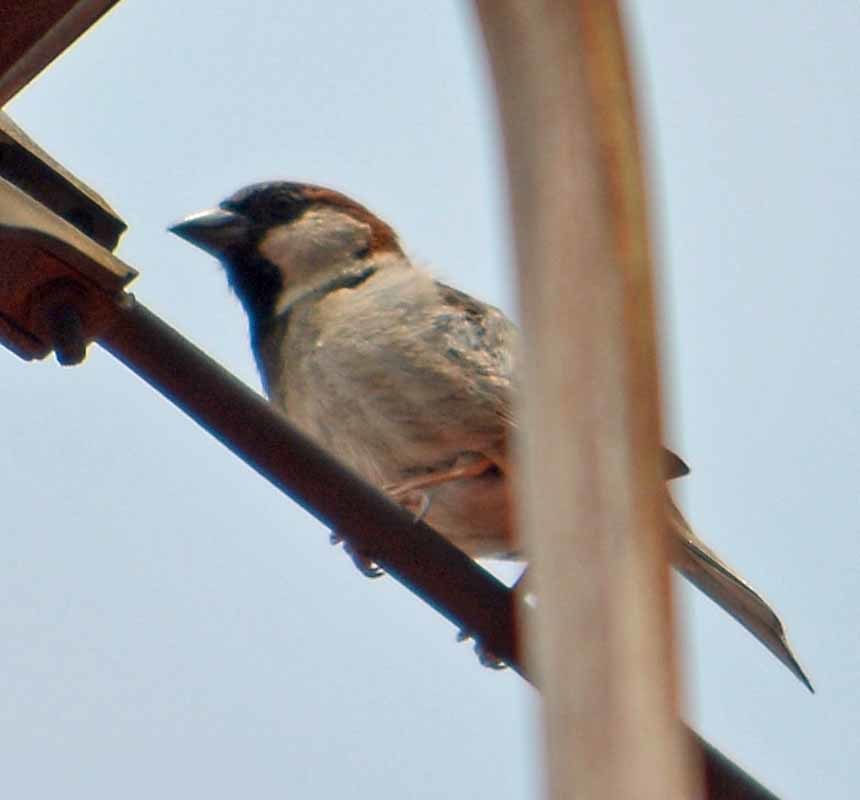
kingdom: Animalia
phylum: Chordata
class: Aves
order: Passeriformes
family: Passeridae
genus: Passer
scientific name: Passer domesticus
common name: House sparrow
